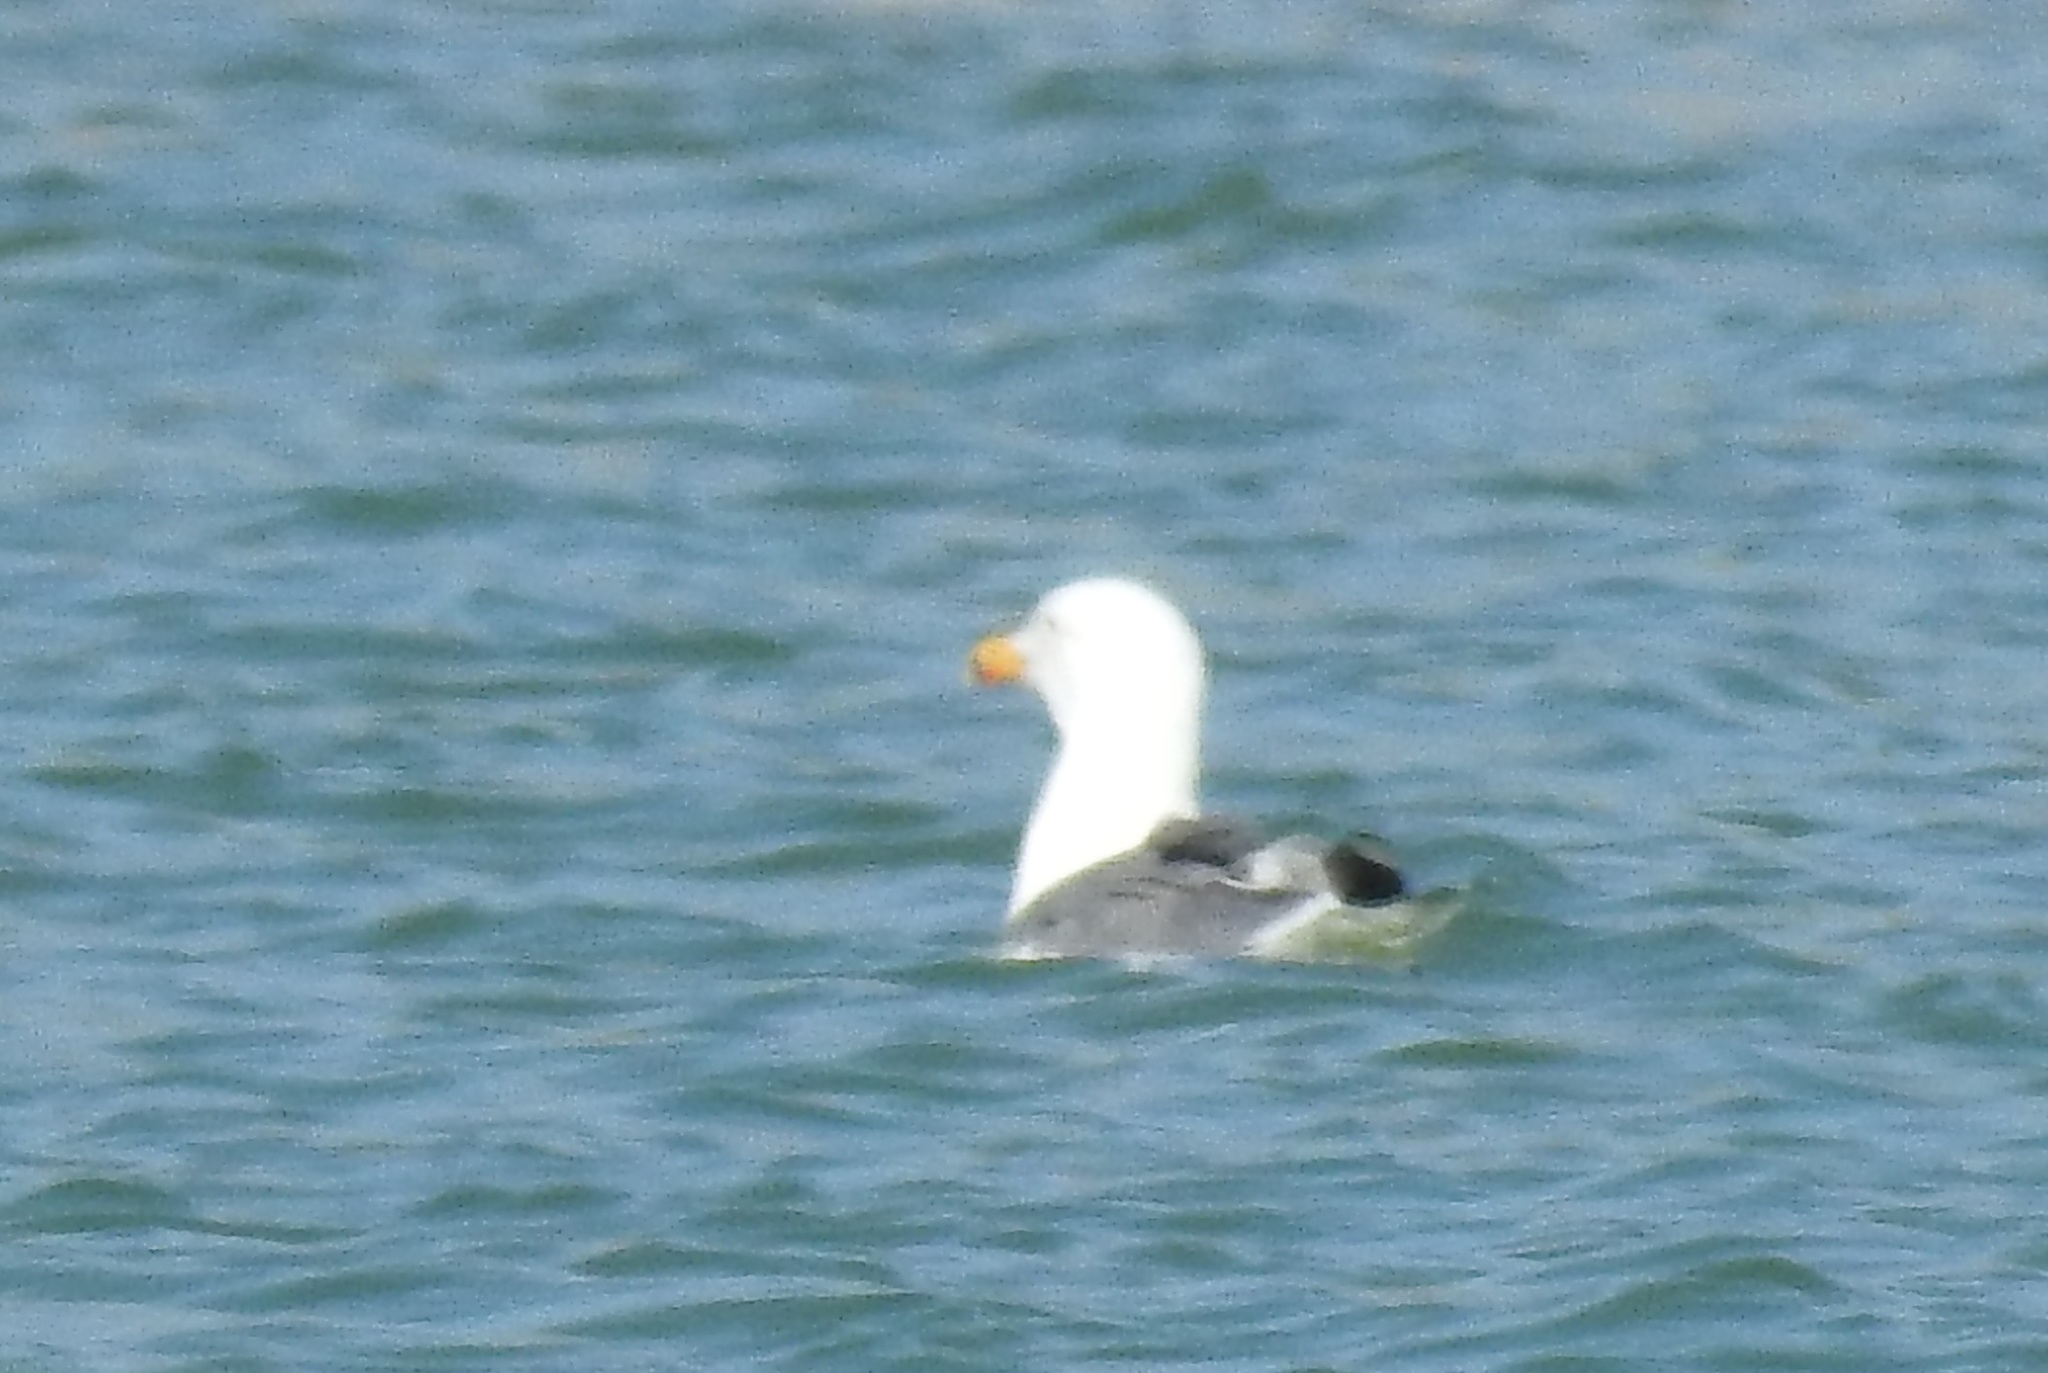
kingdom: Animalia
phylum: Chordata
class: Aves
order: Charadriiformes
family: Laridae
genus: Larus
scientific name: Larus michahellis
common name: Yellow-legged gull
